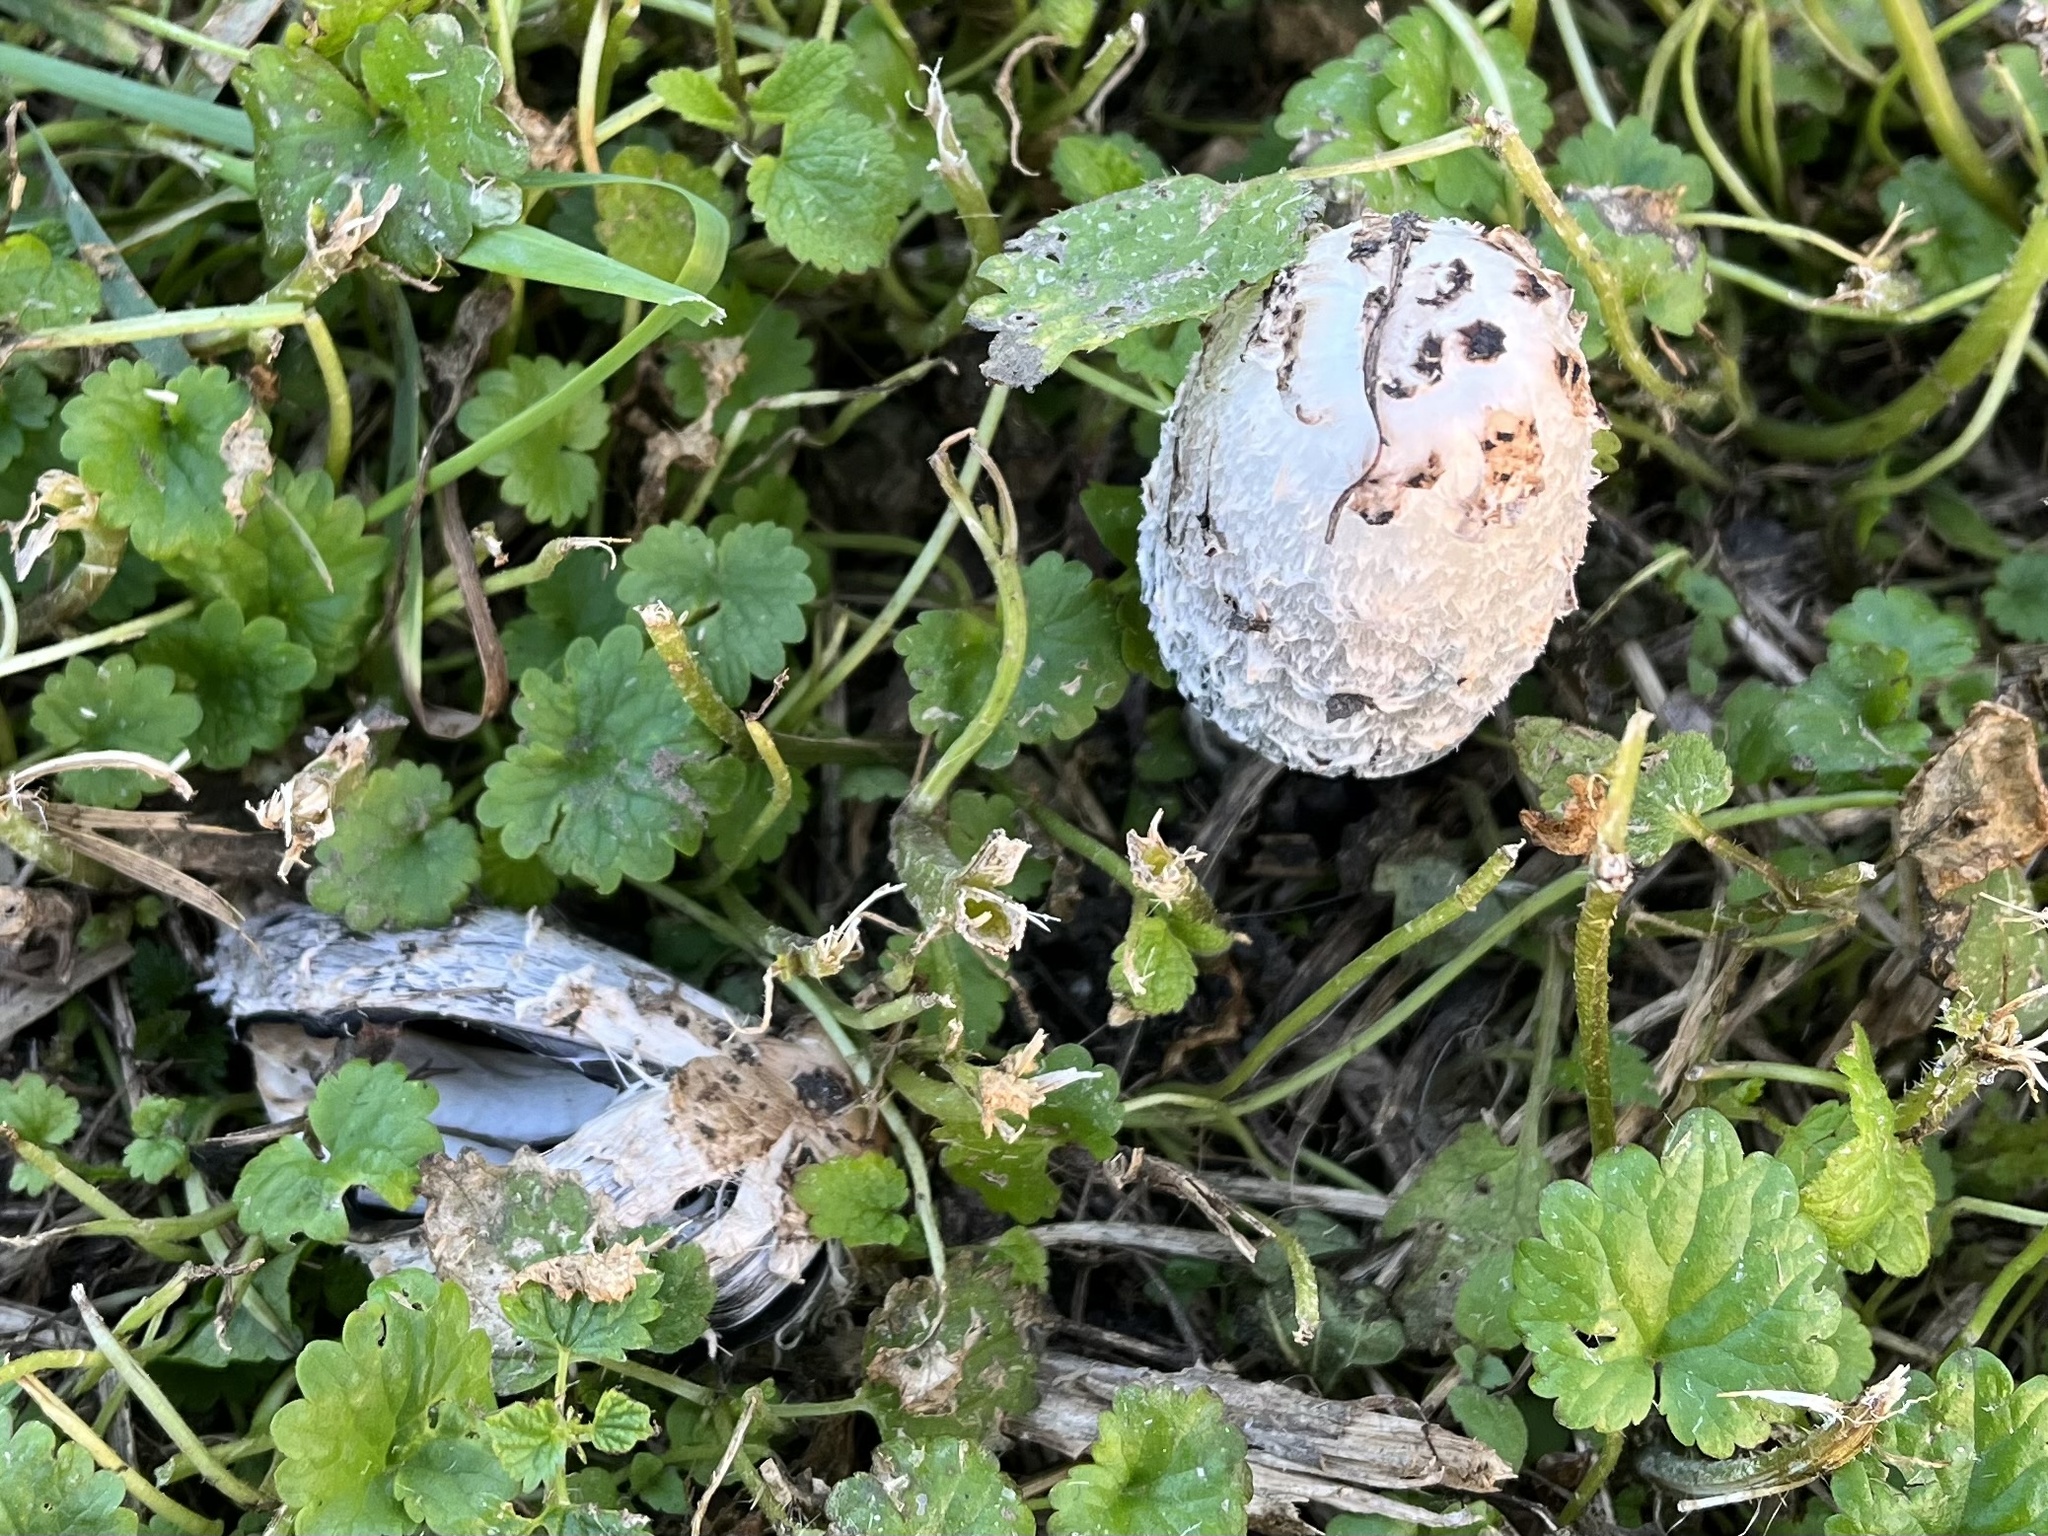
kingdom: Fungi
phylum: Basidiomycota
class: Agaricomycetes
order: Agaricales
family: Agaricaceae
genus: Coprinus
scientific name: Coprinus comatus
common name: Lawyer's wig
